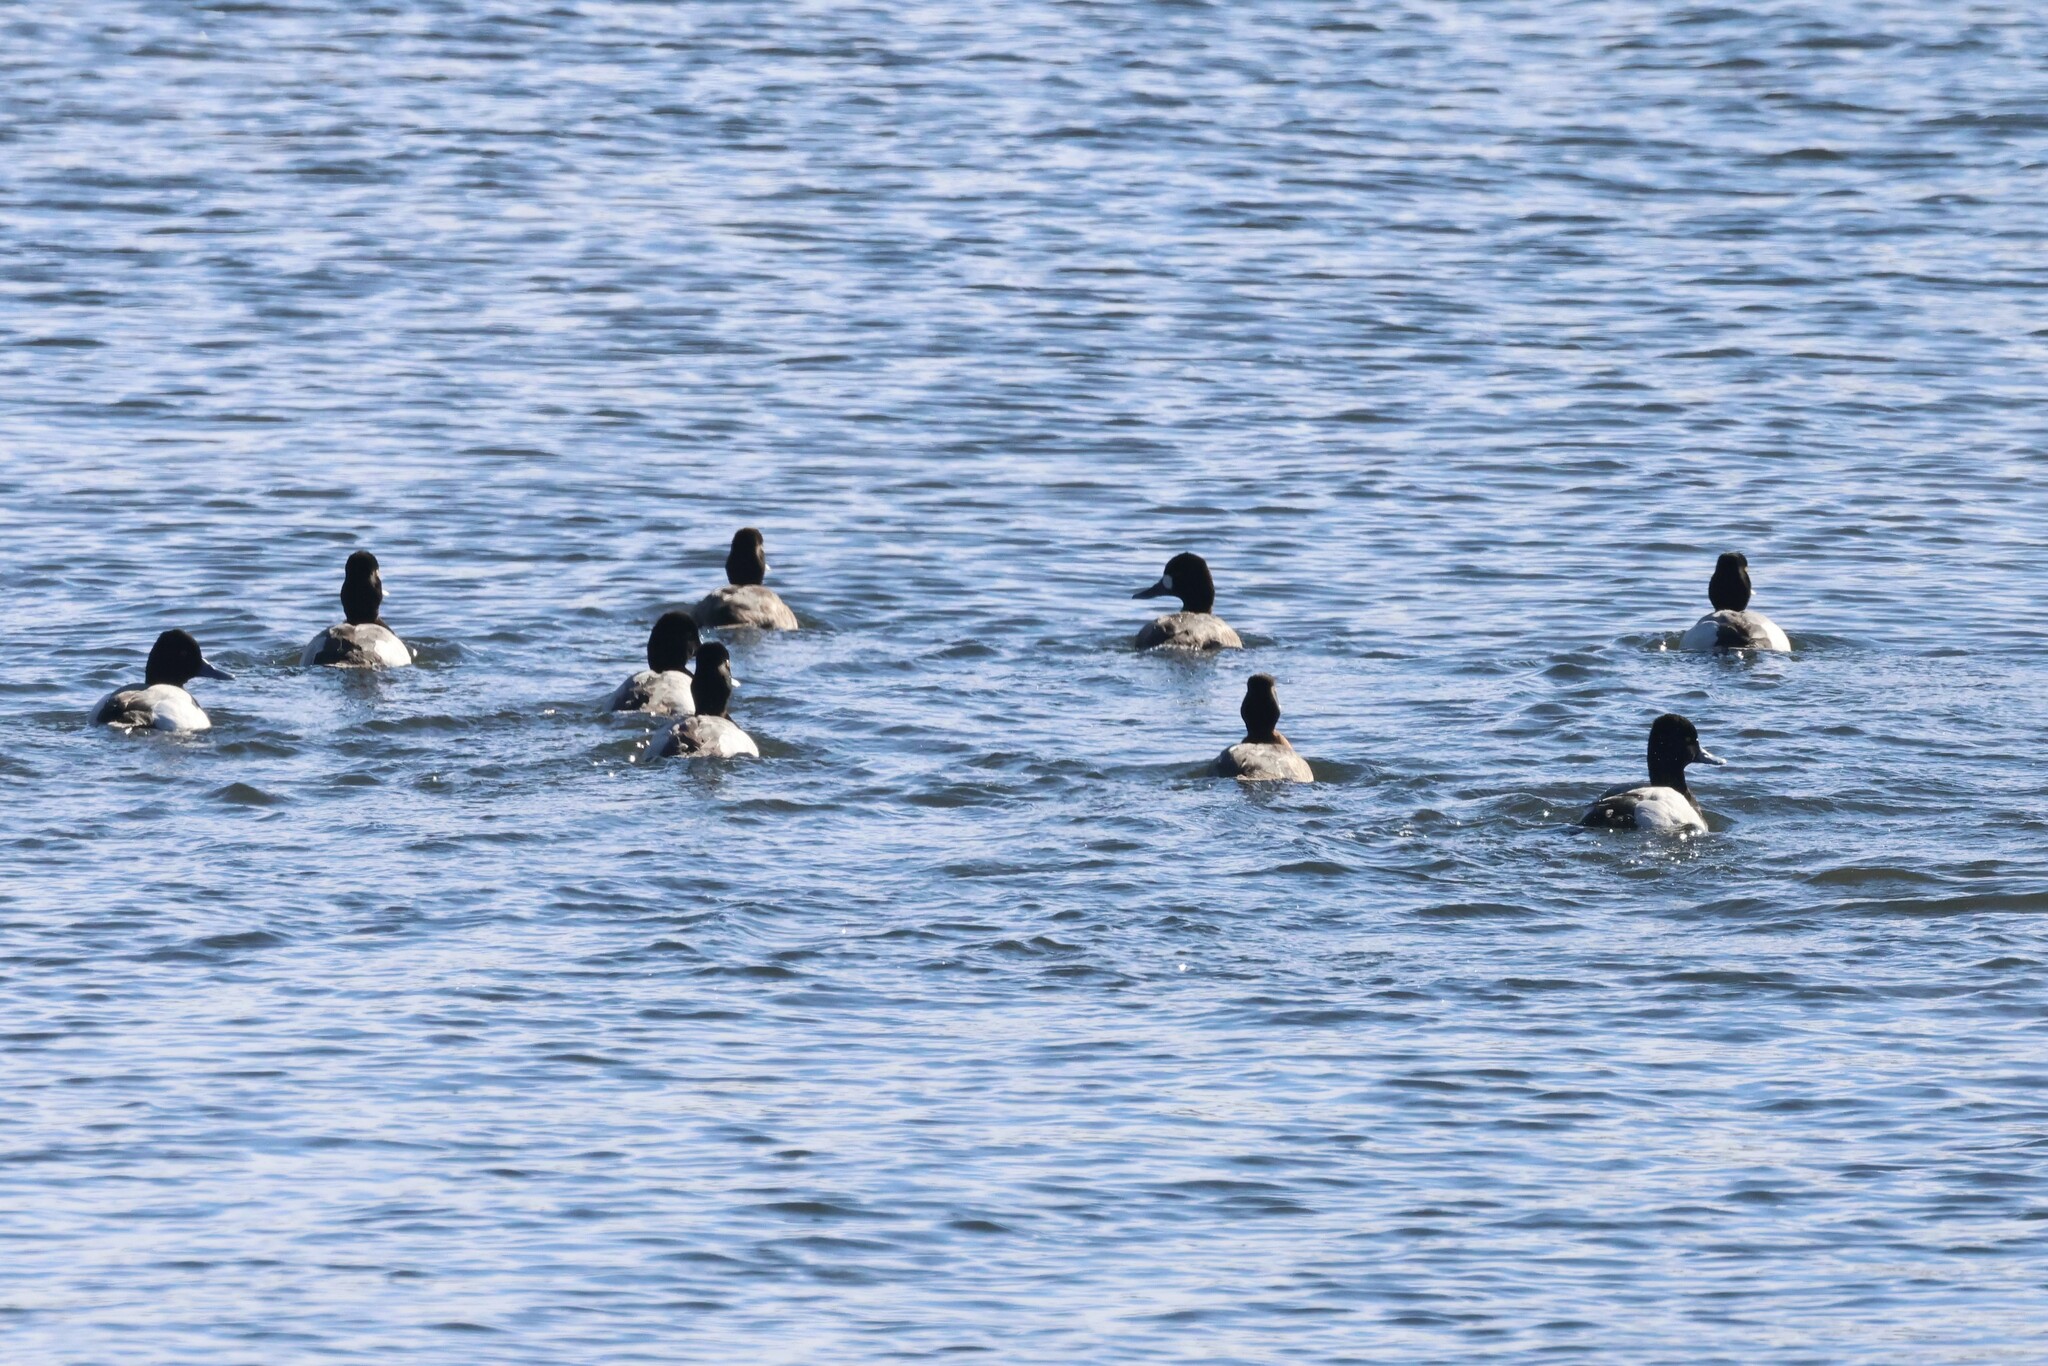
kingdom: Animalia
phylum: Chordata
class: Aves
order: Anseriformes
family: Anatidae
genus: Aythya
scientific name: Aythya affinis
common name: Lesser scaup
